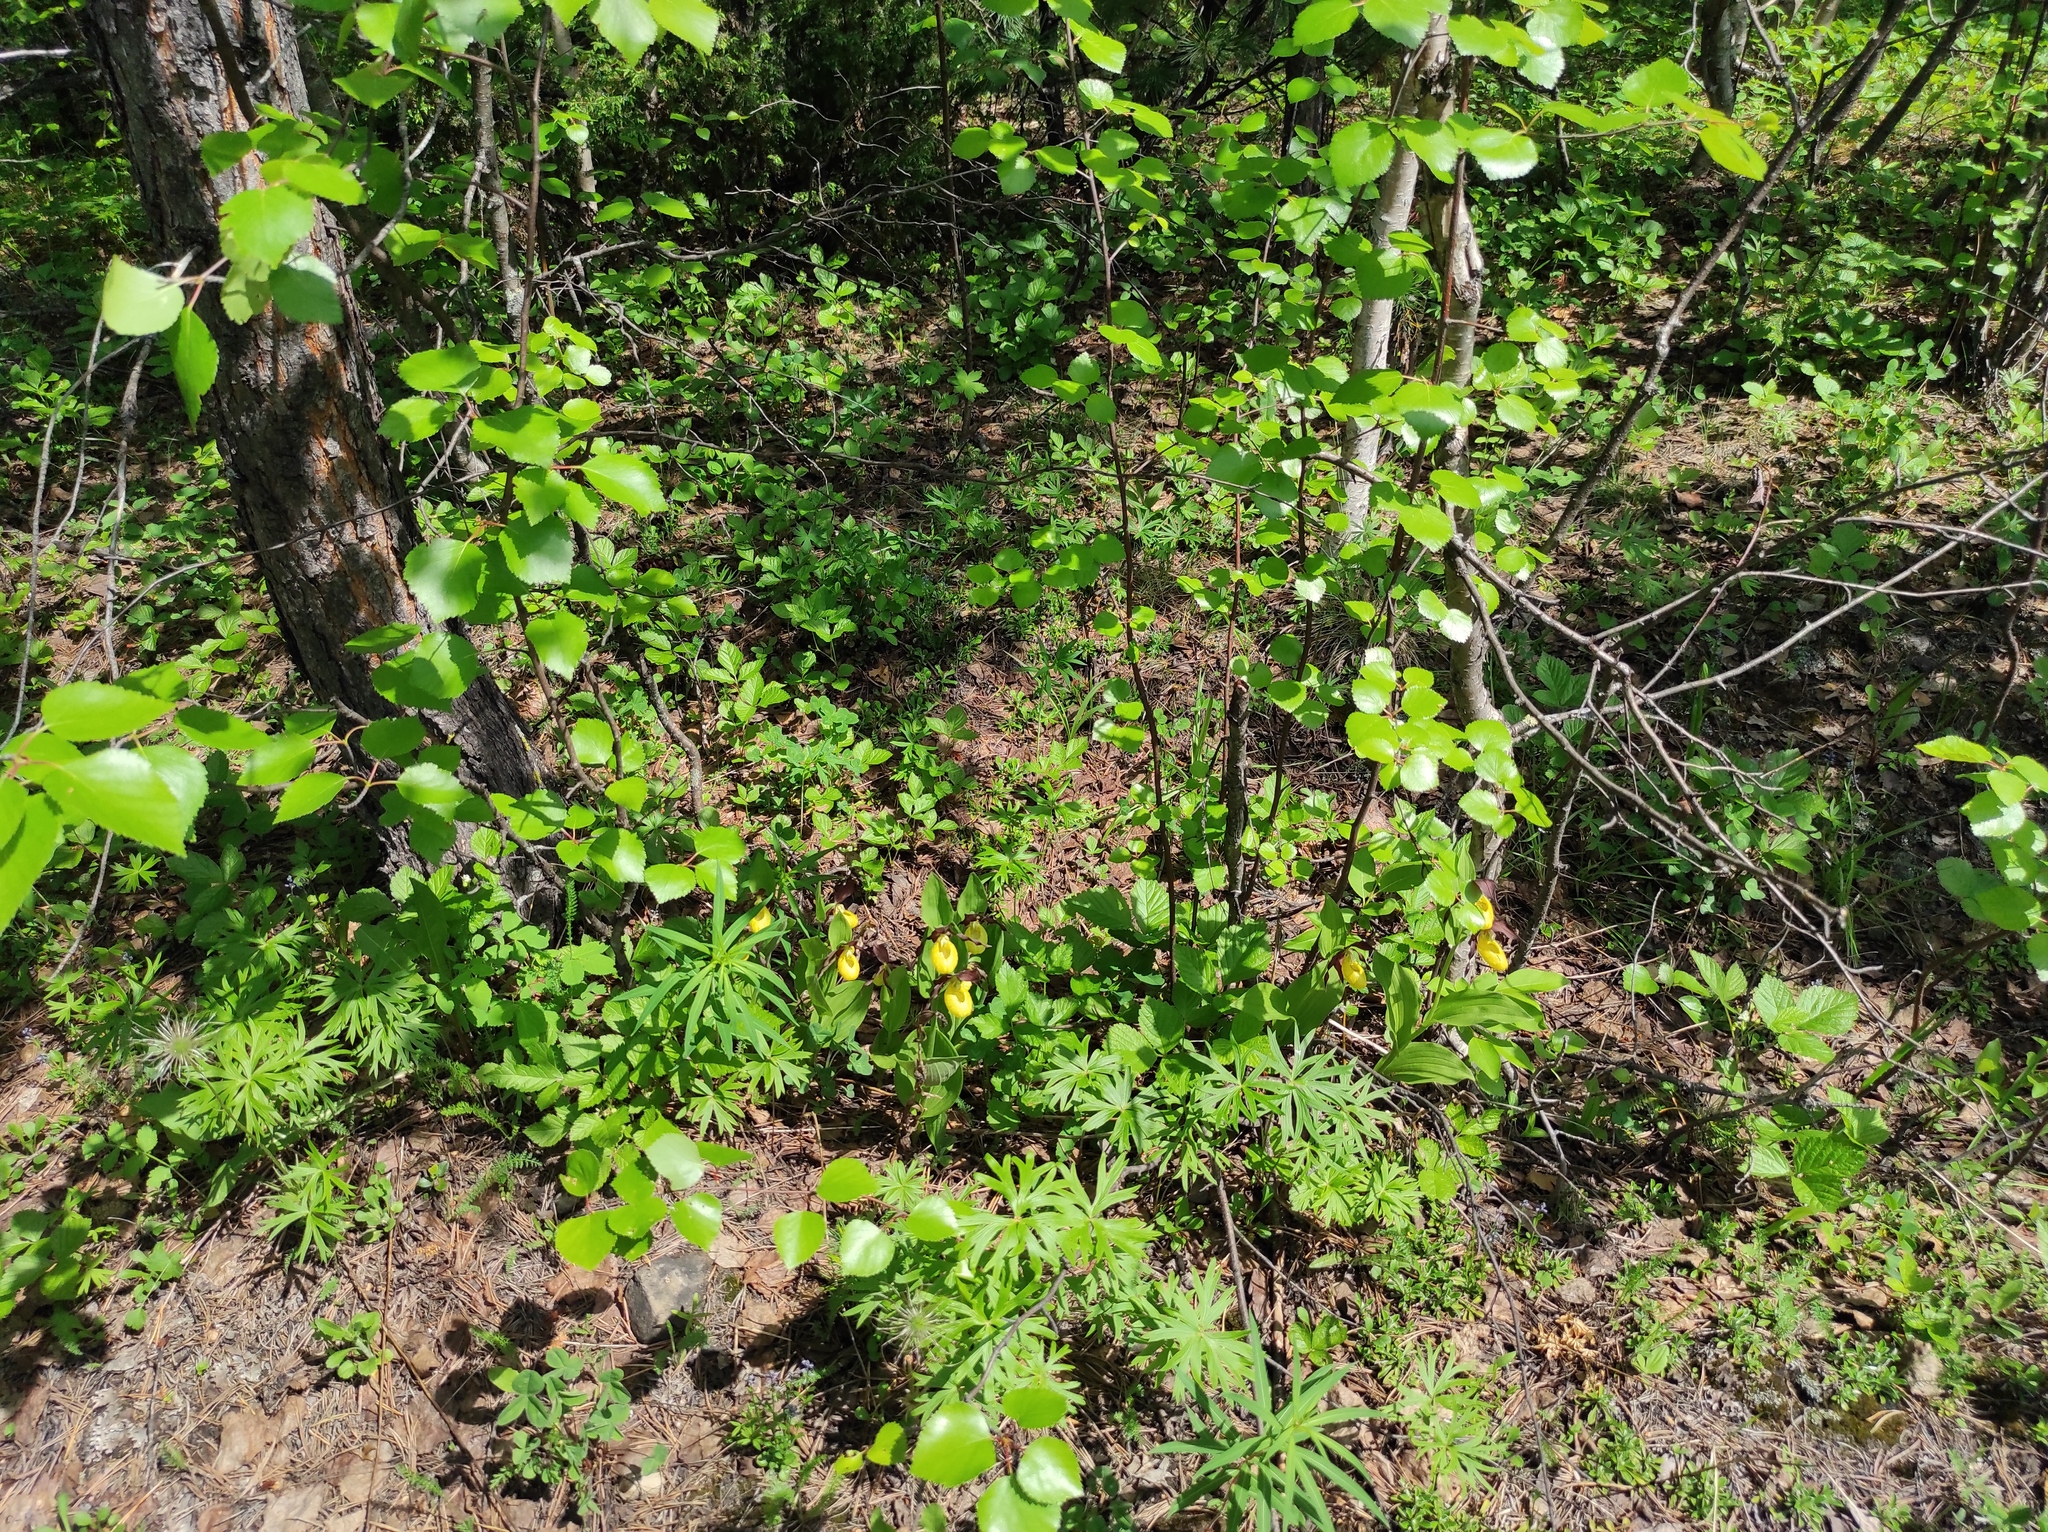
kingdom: Plantae
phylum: Tracheophyta
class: Liliopsida
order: Asparagales
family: Orchidaceae
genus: Cypripedium
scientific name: Cypripedium calceolus
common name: Lady's-slipper
